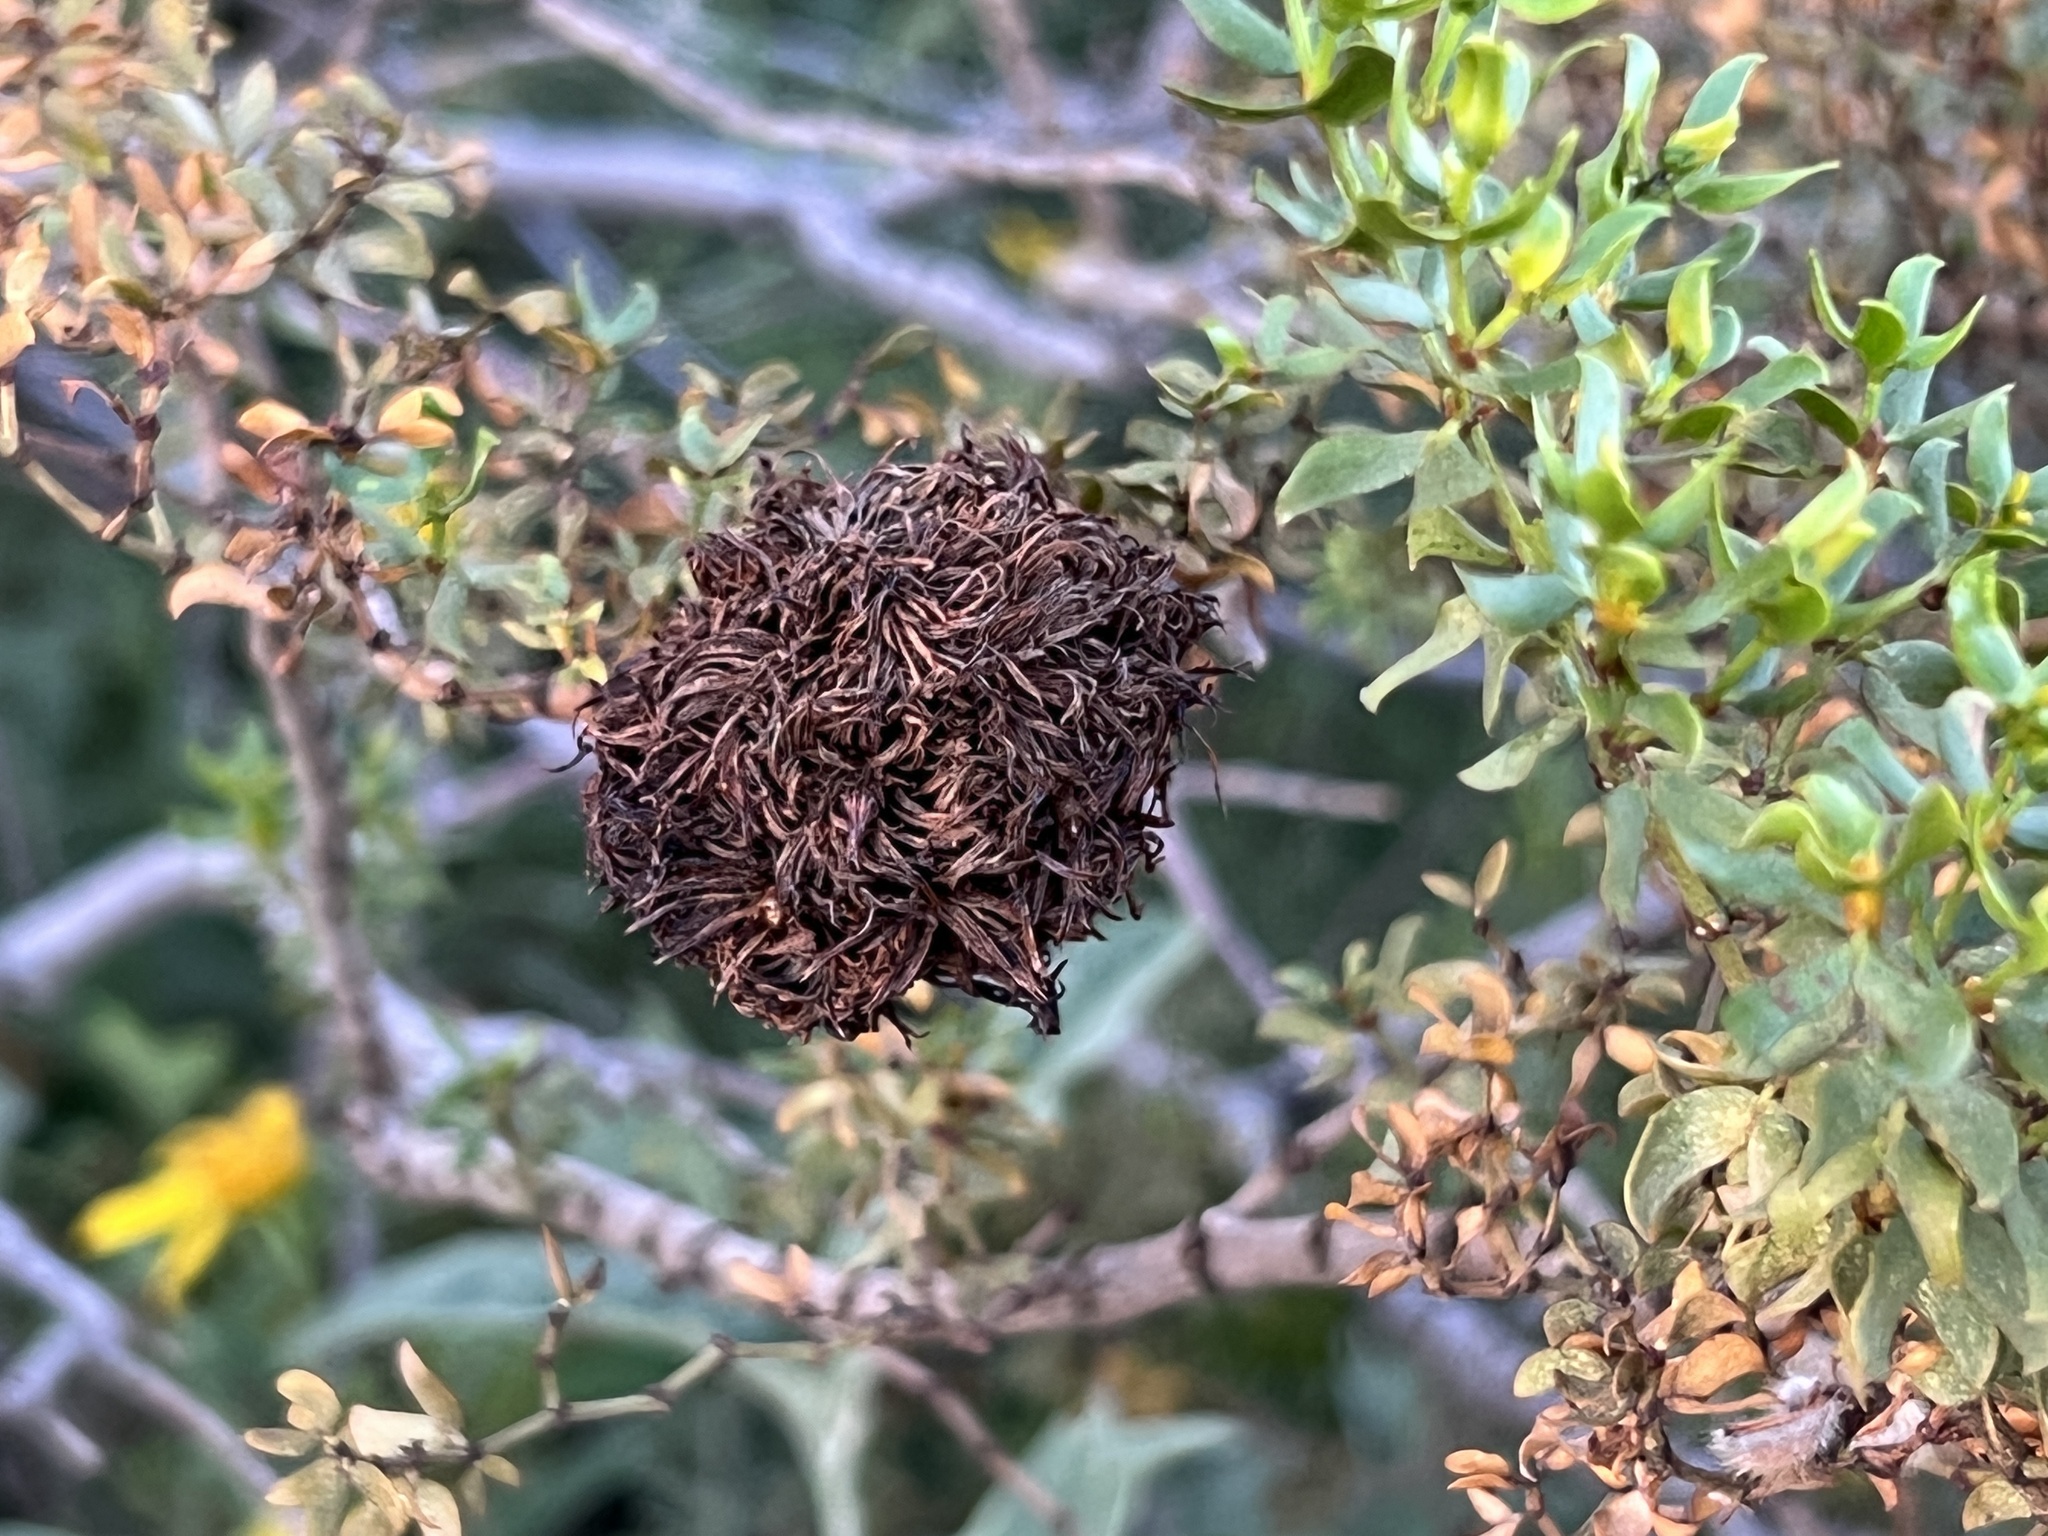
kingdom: Animalia
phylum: Arthropoda
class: Insecta
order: Diptera
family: Cecidomyiidae
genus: Asphondylia
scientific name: Asphondylia auripila
